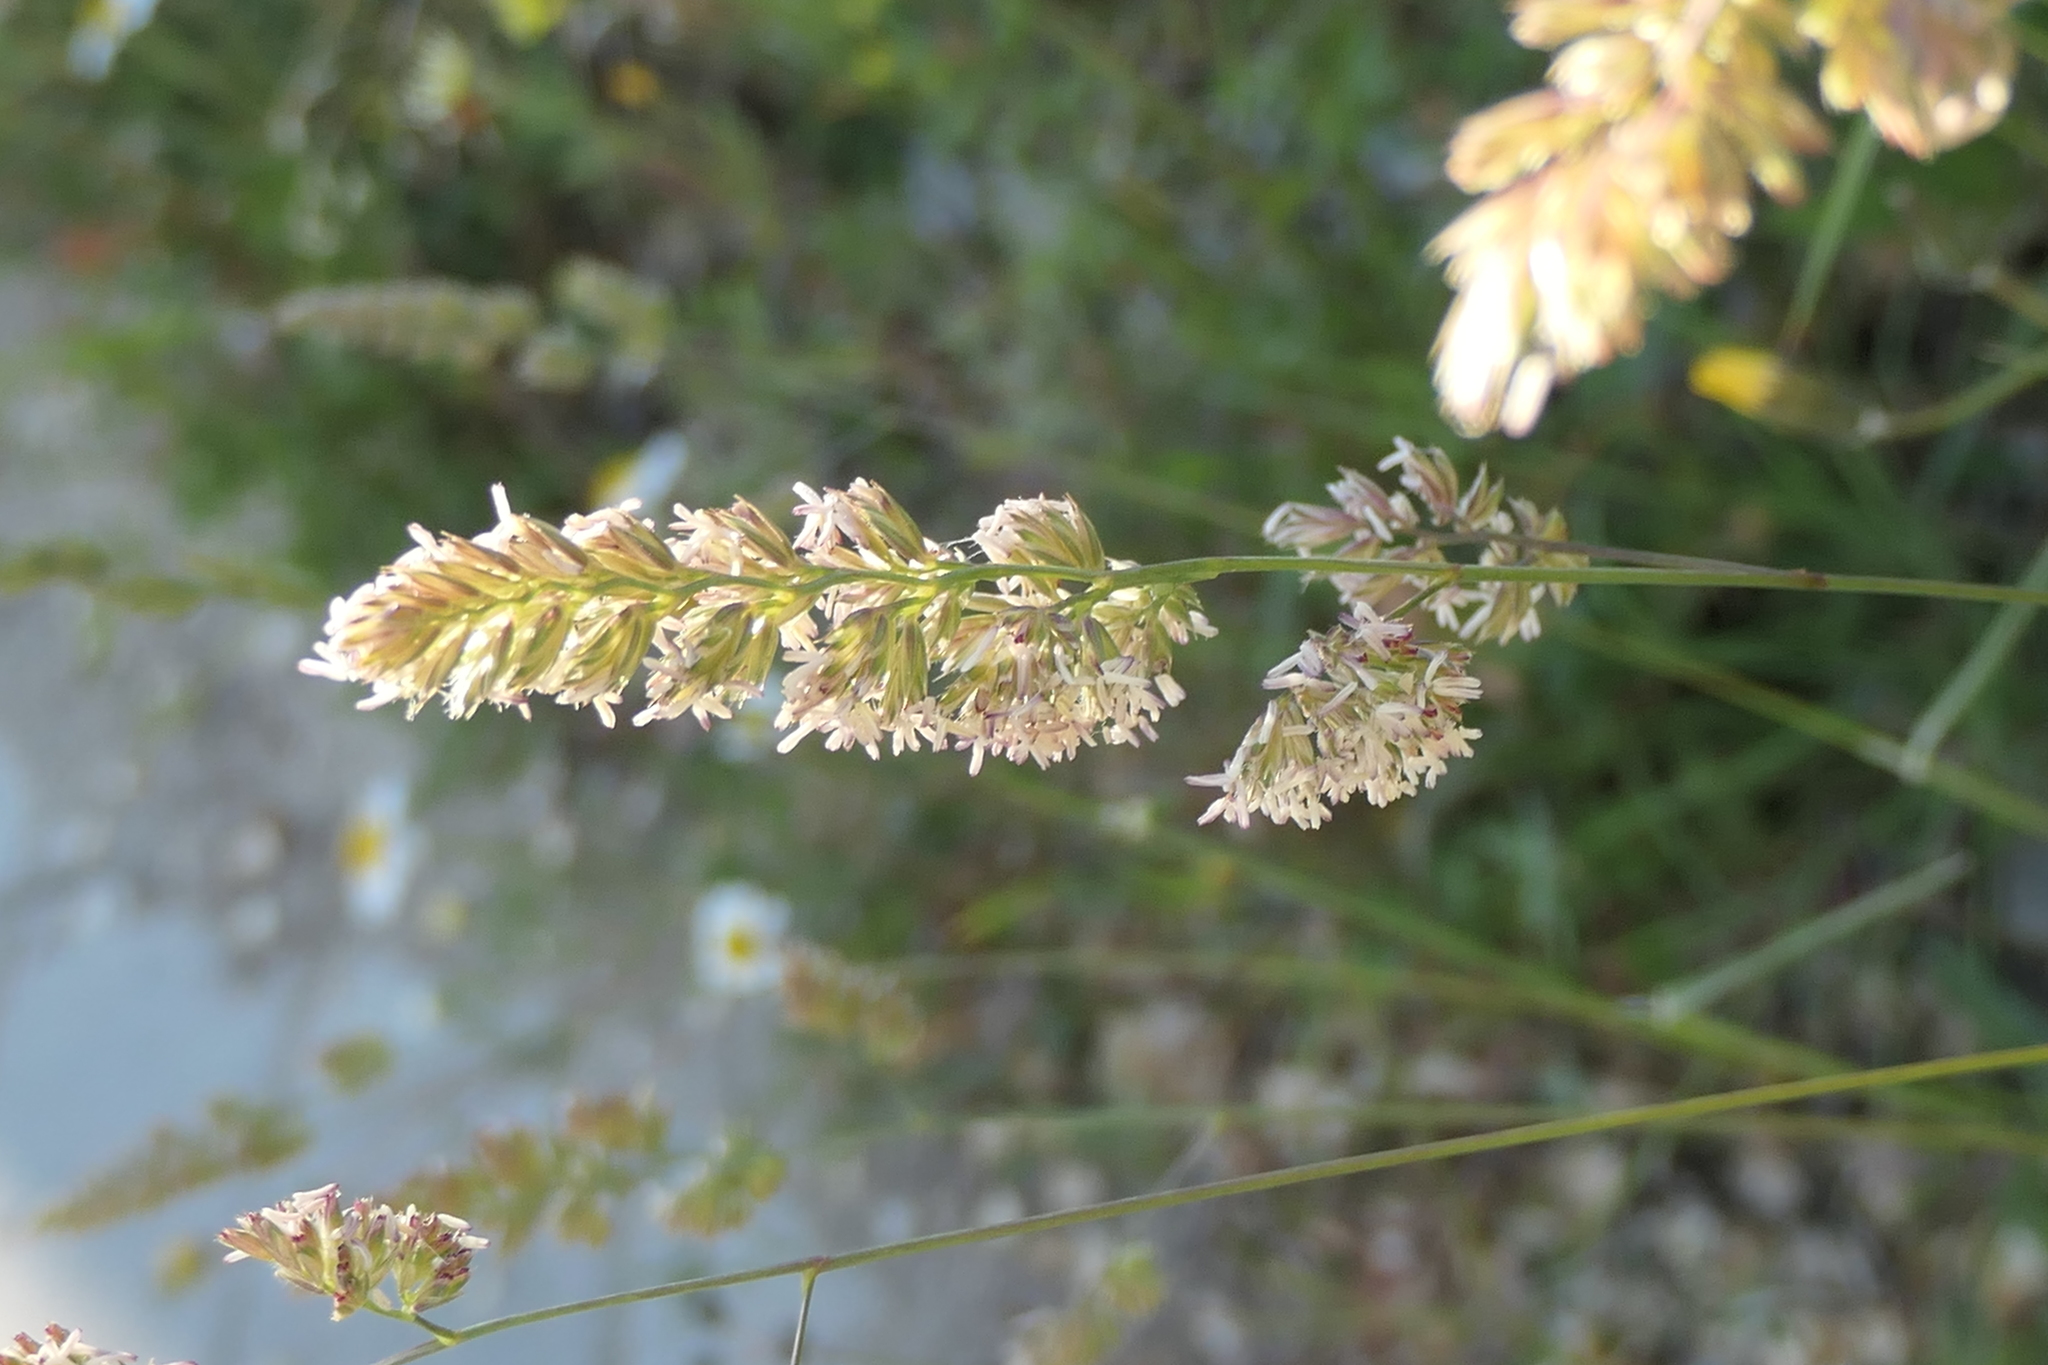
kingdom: Plantae
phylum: Tracheophyta
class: Liliopsida
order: Poales
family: Poaceae
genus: Dactylis
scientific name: Dactylis glomerata
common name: Orchardgrass
